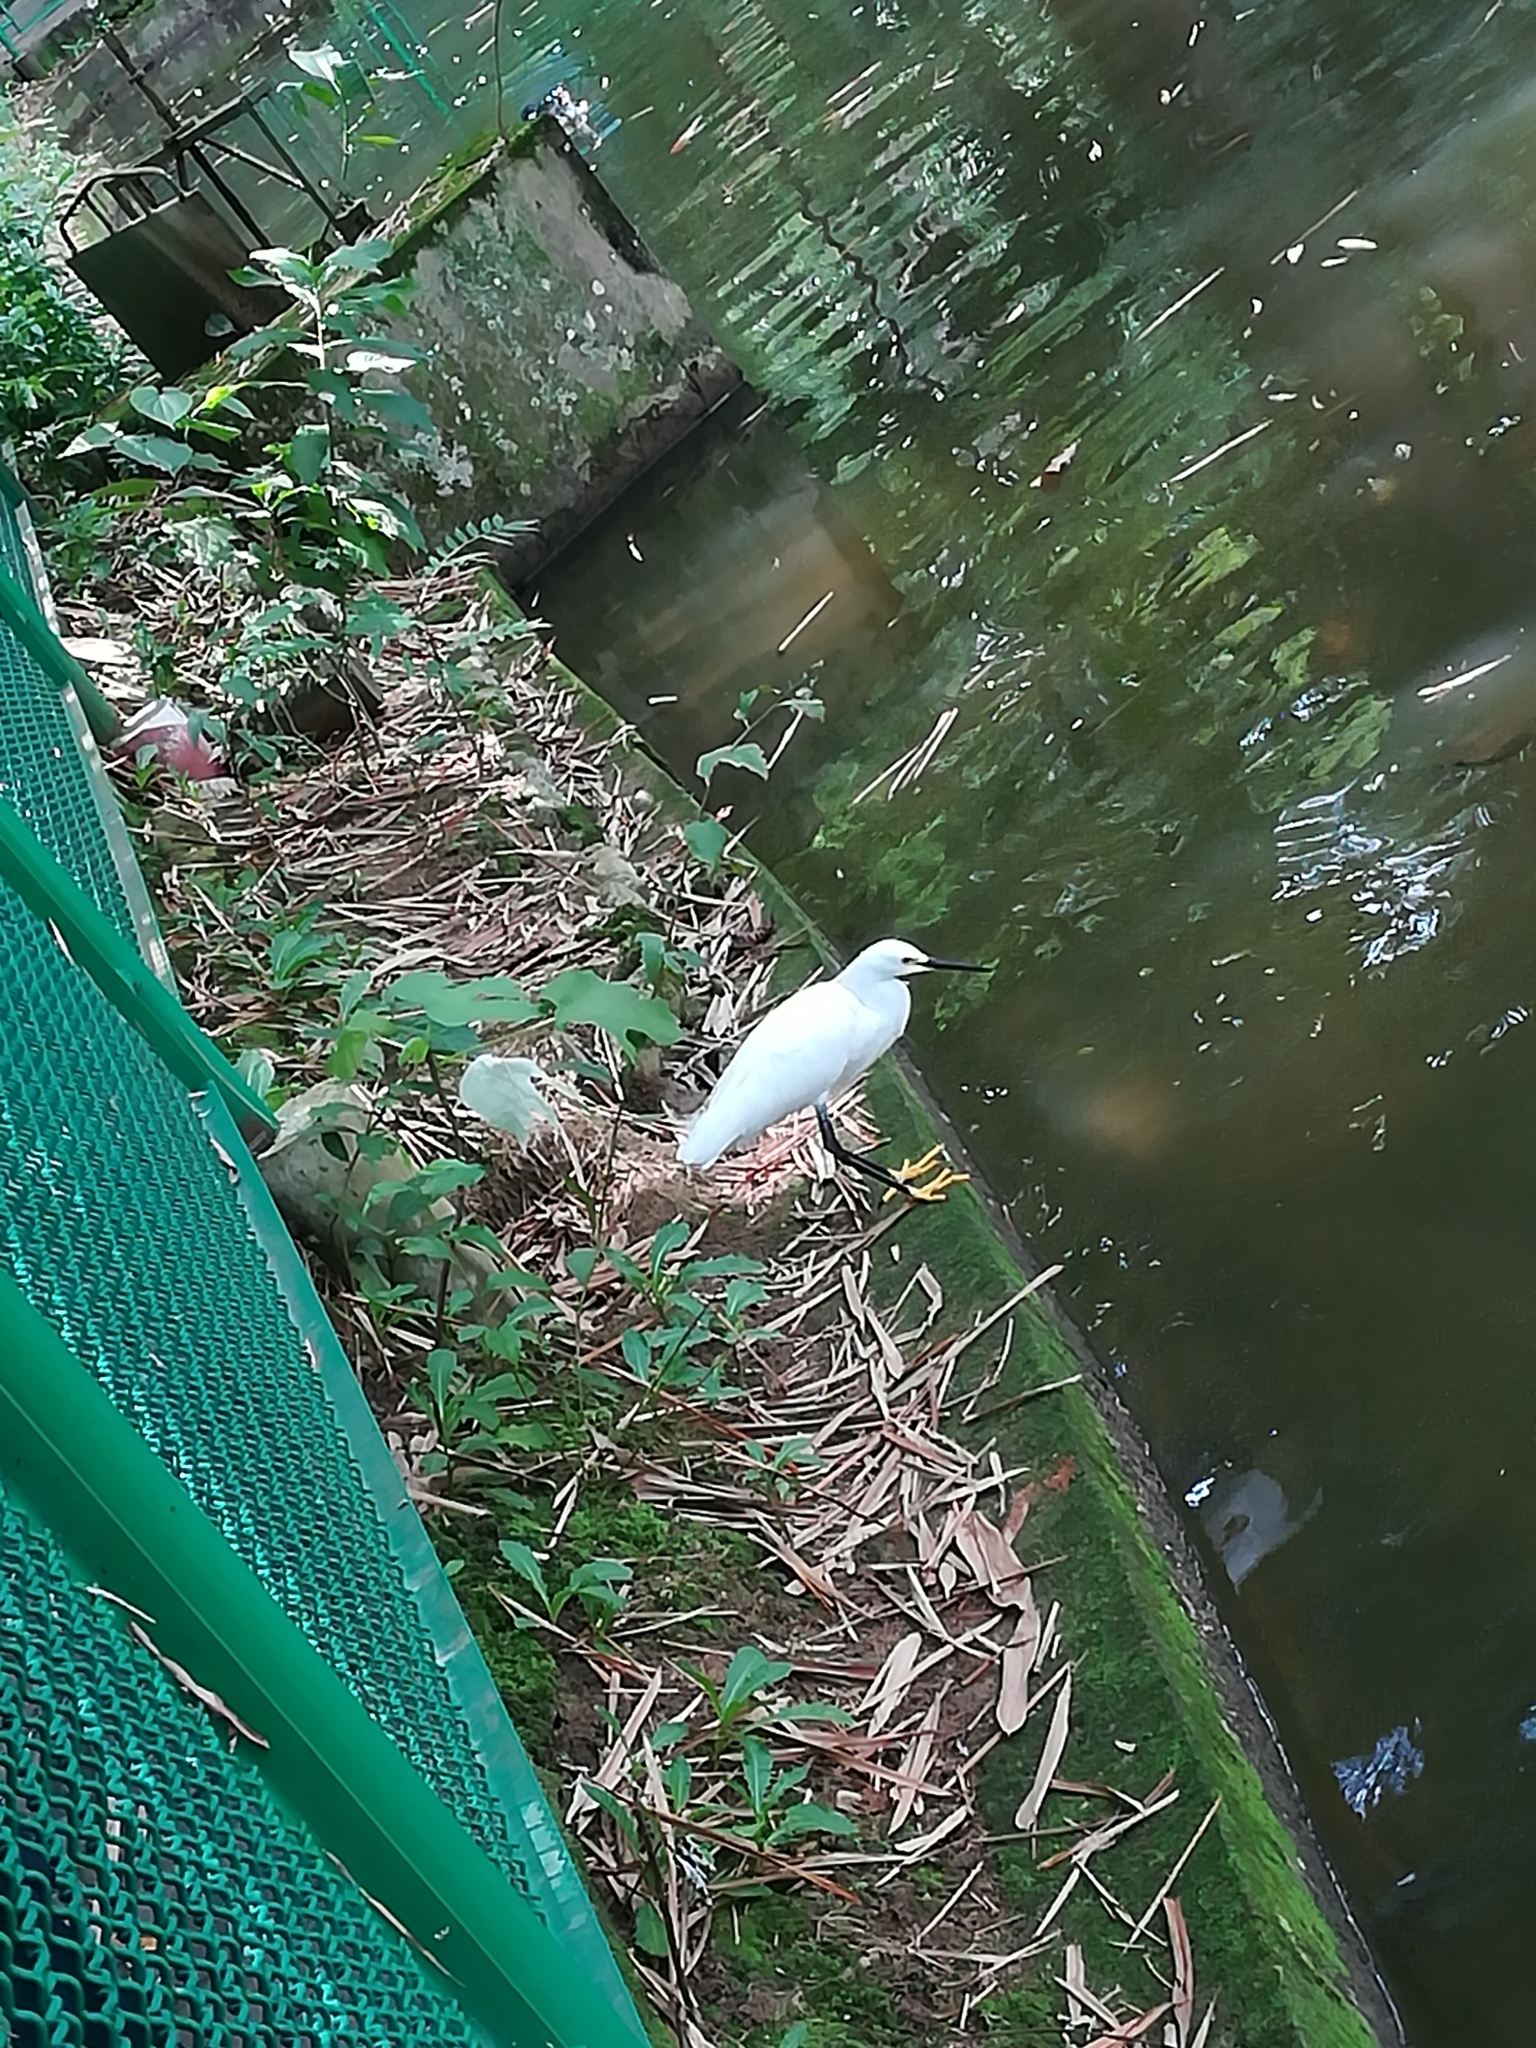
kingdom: Animalia
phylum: Chordata
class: Aves
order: Pelecaniformes
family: Ardeidae
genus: Egretta
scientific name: Egretta thula
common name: Snowy egret
